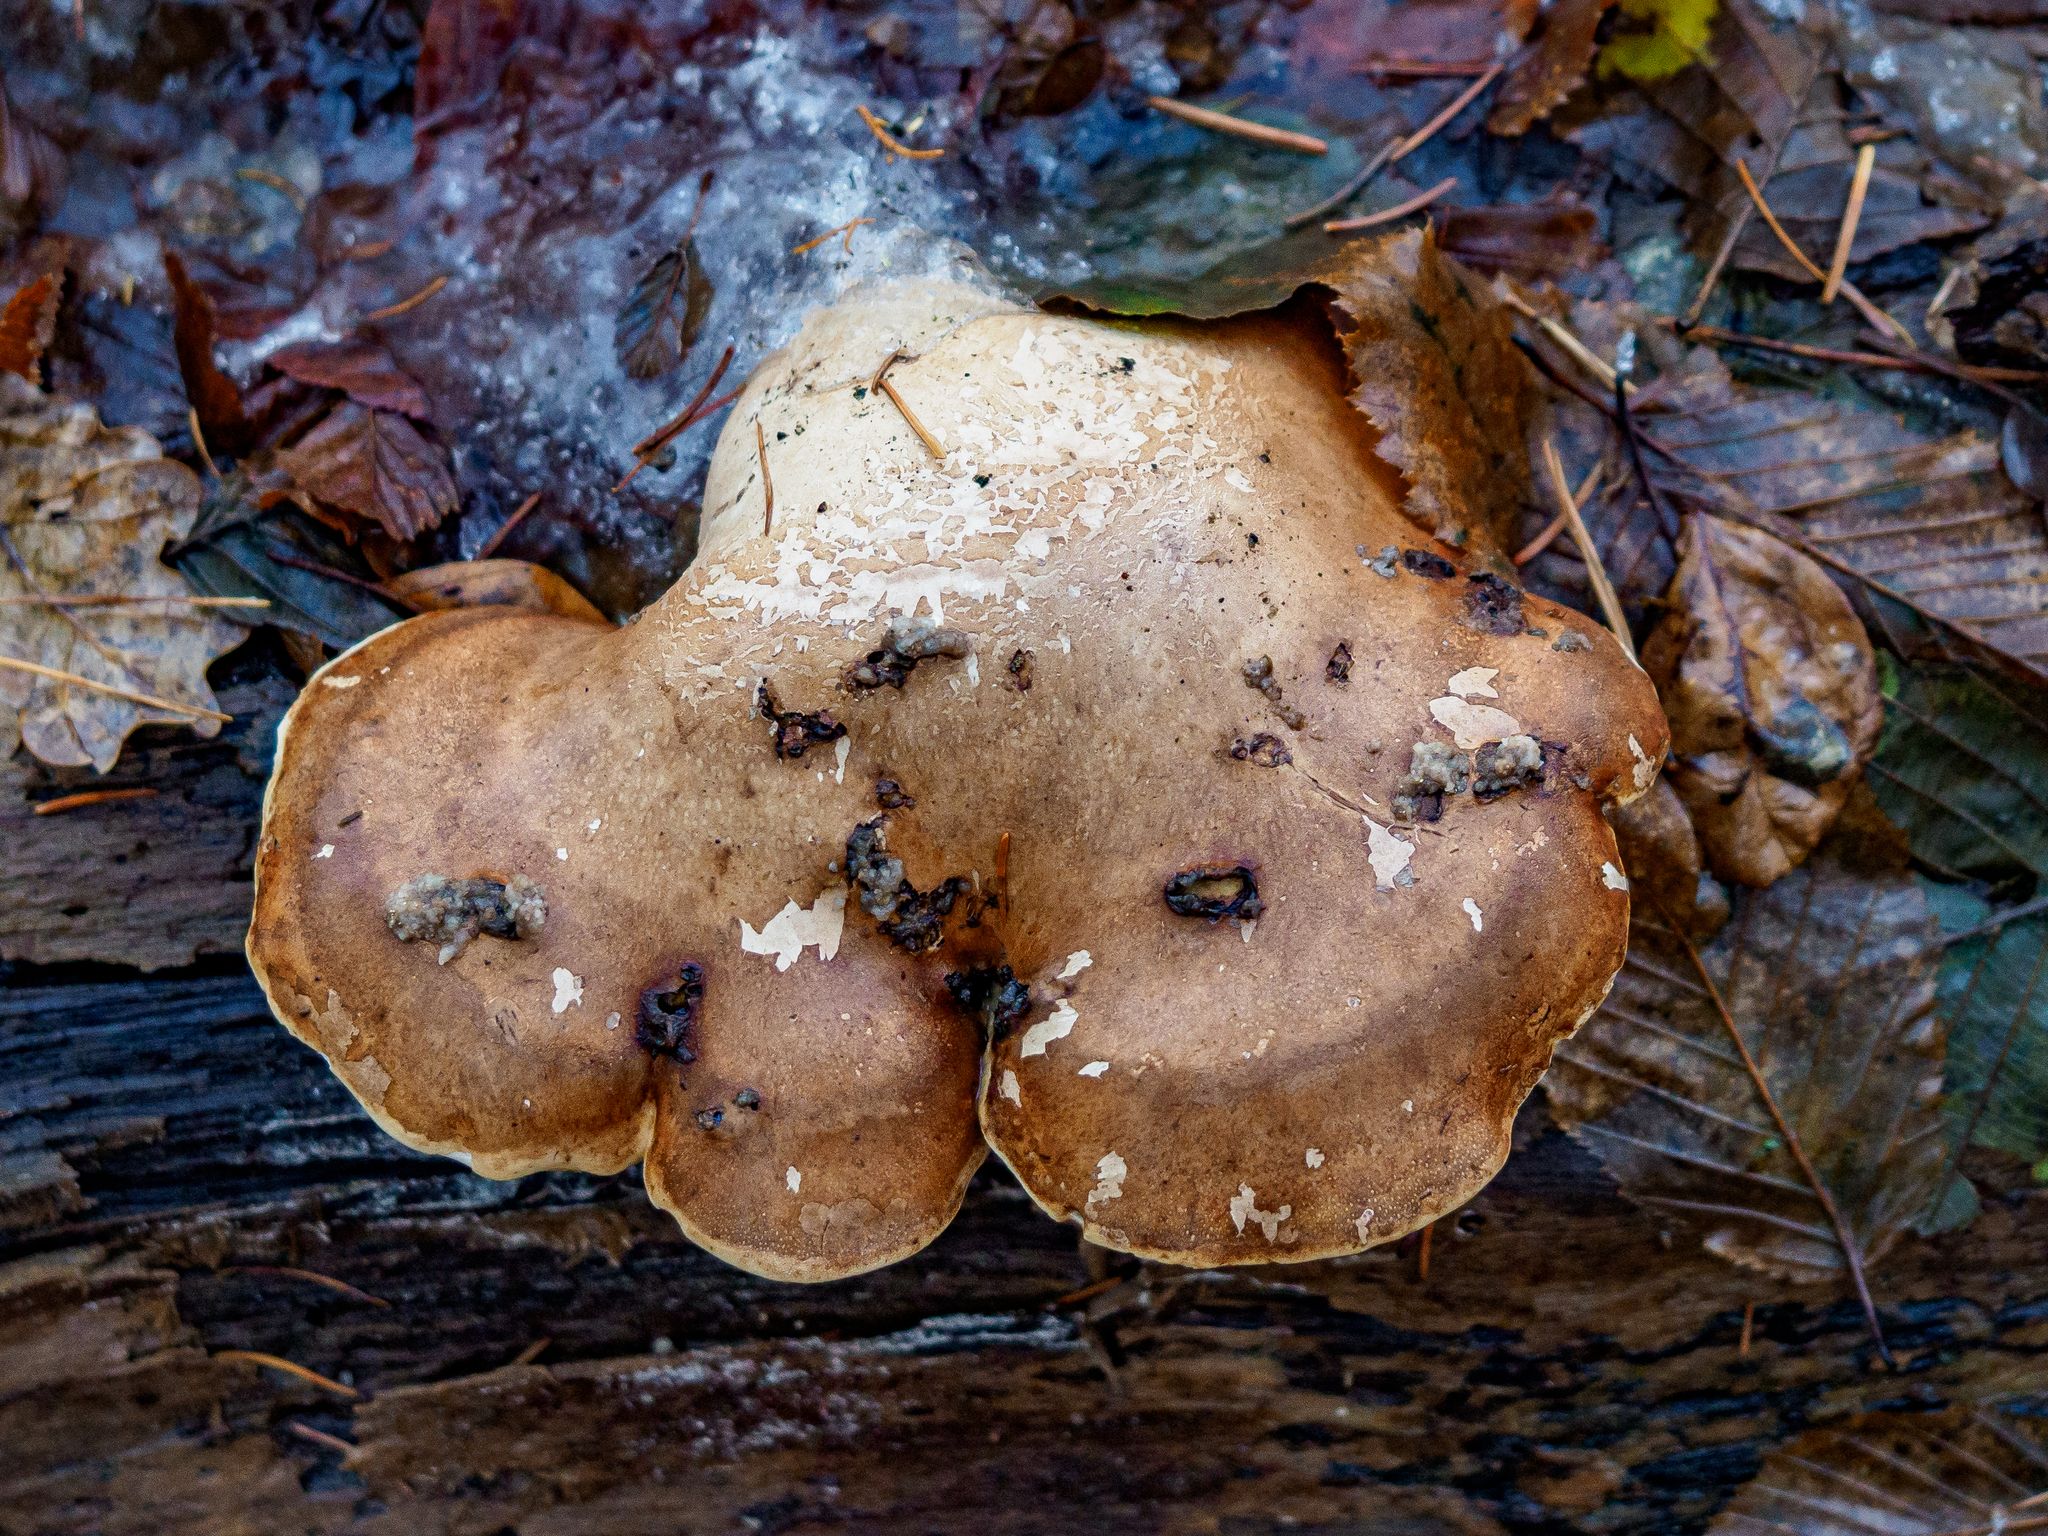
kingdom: Fungi
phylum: Basidiomycota
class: Agaricomycetes
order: Polyporales
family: Fomitopsidaceae
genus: Fomitopsis
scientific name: Fomitopsis betulina
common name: Birch polypore
